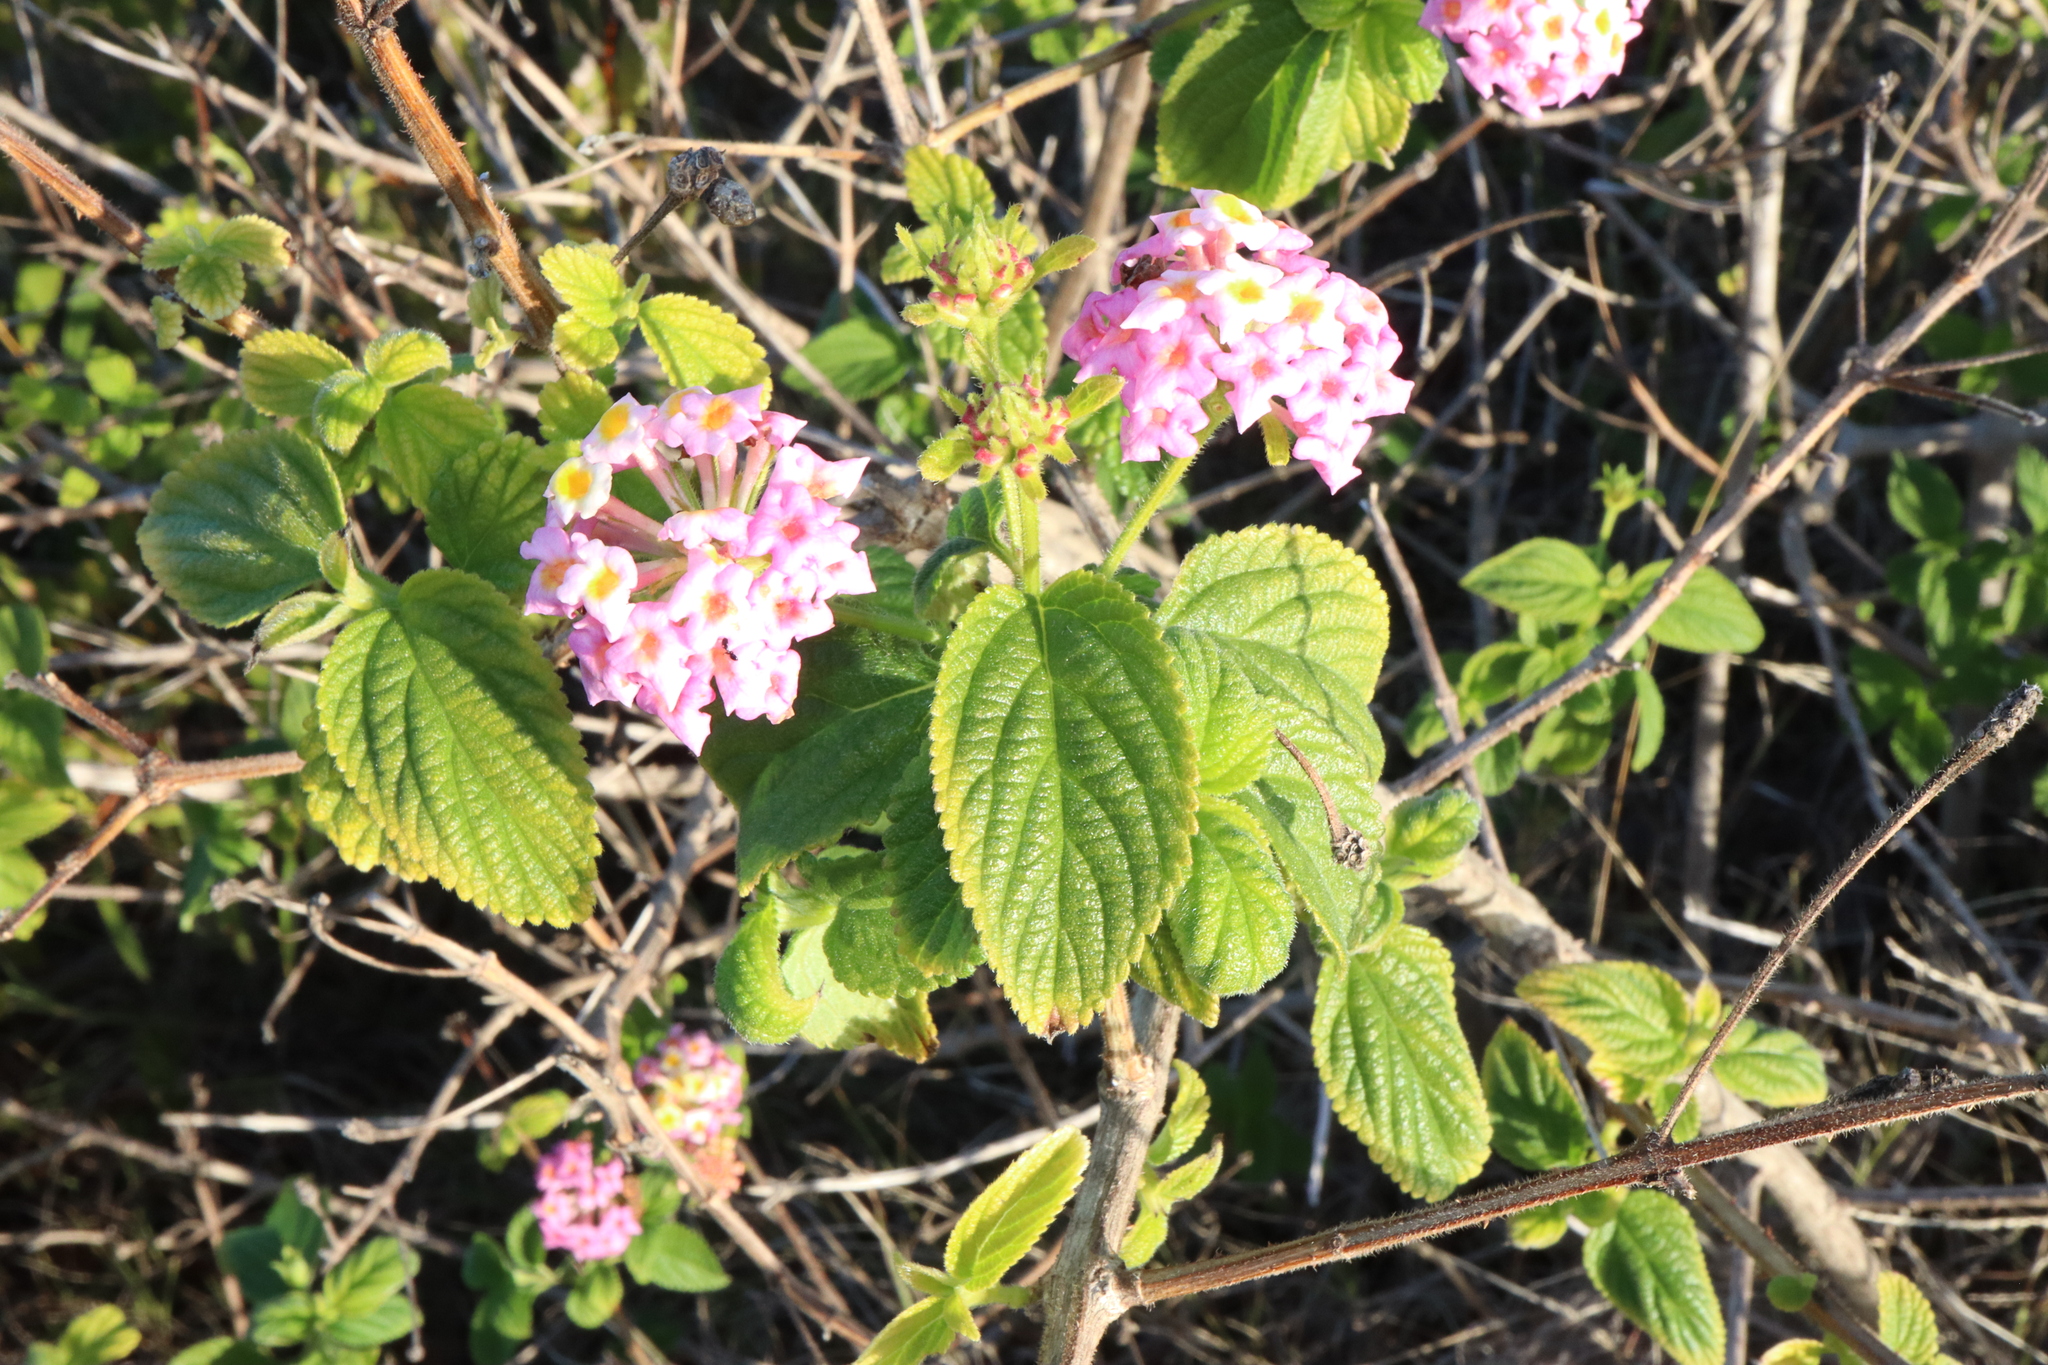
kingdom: Plantae
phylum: Tracheophyta
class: Magnoliopsida
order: Lamiales
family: Verbenaceae
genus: Lantana
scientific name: Lantana camara
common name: Lantana
